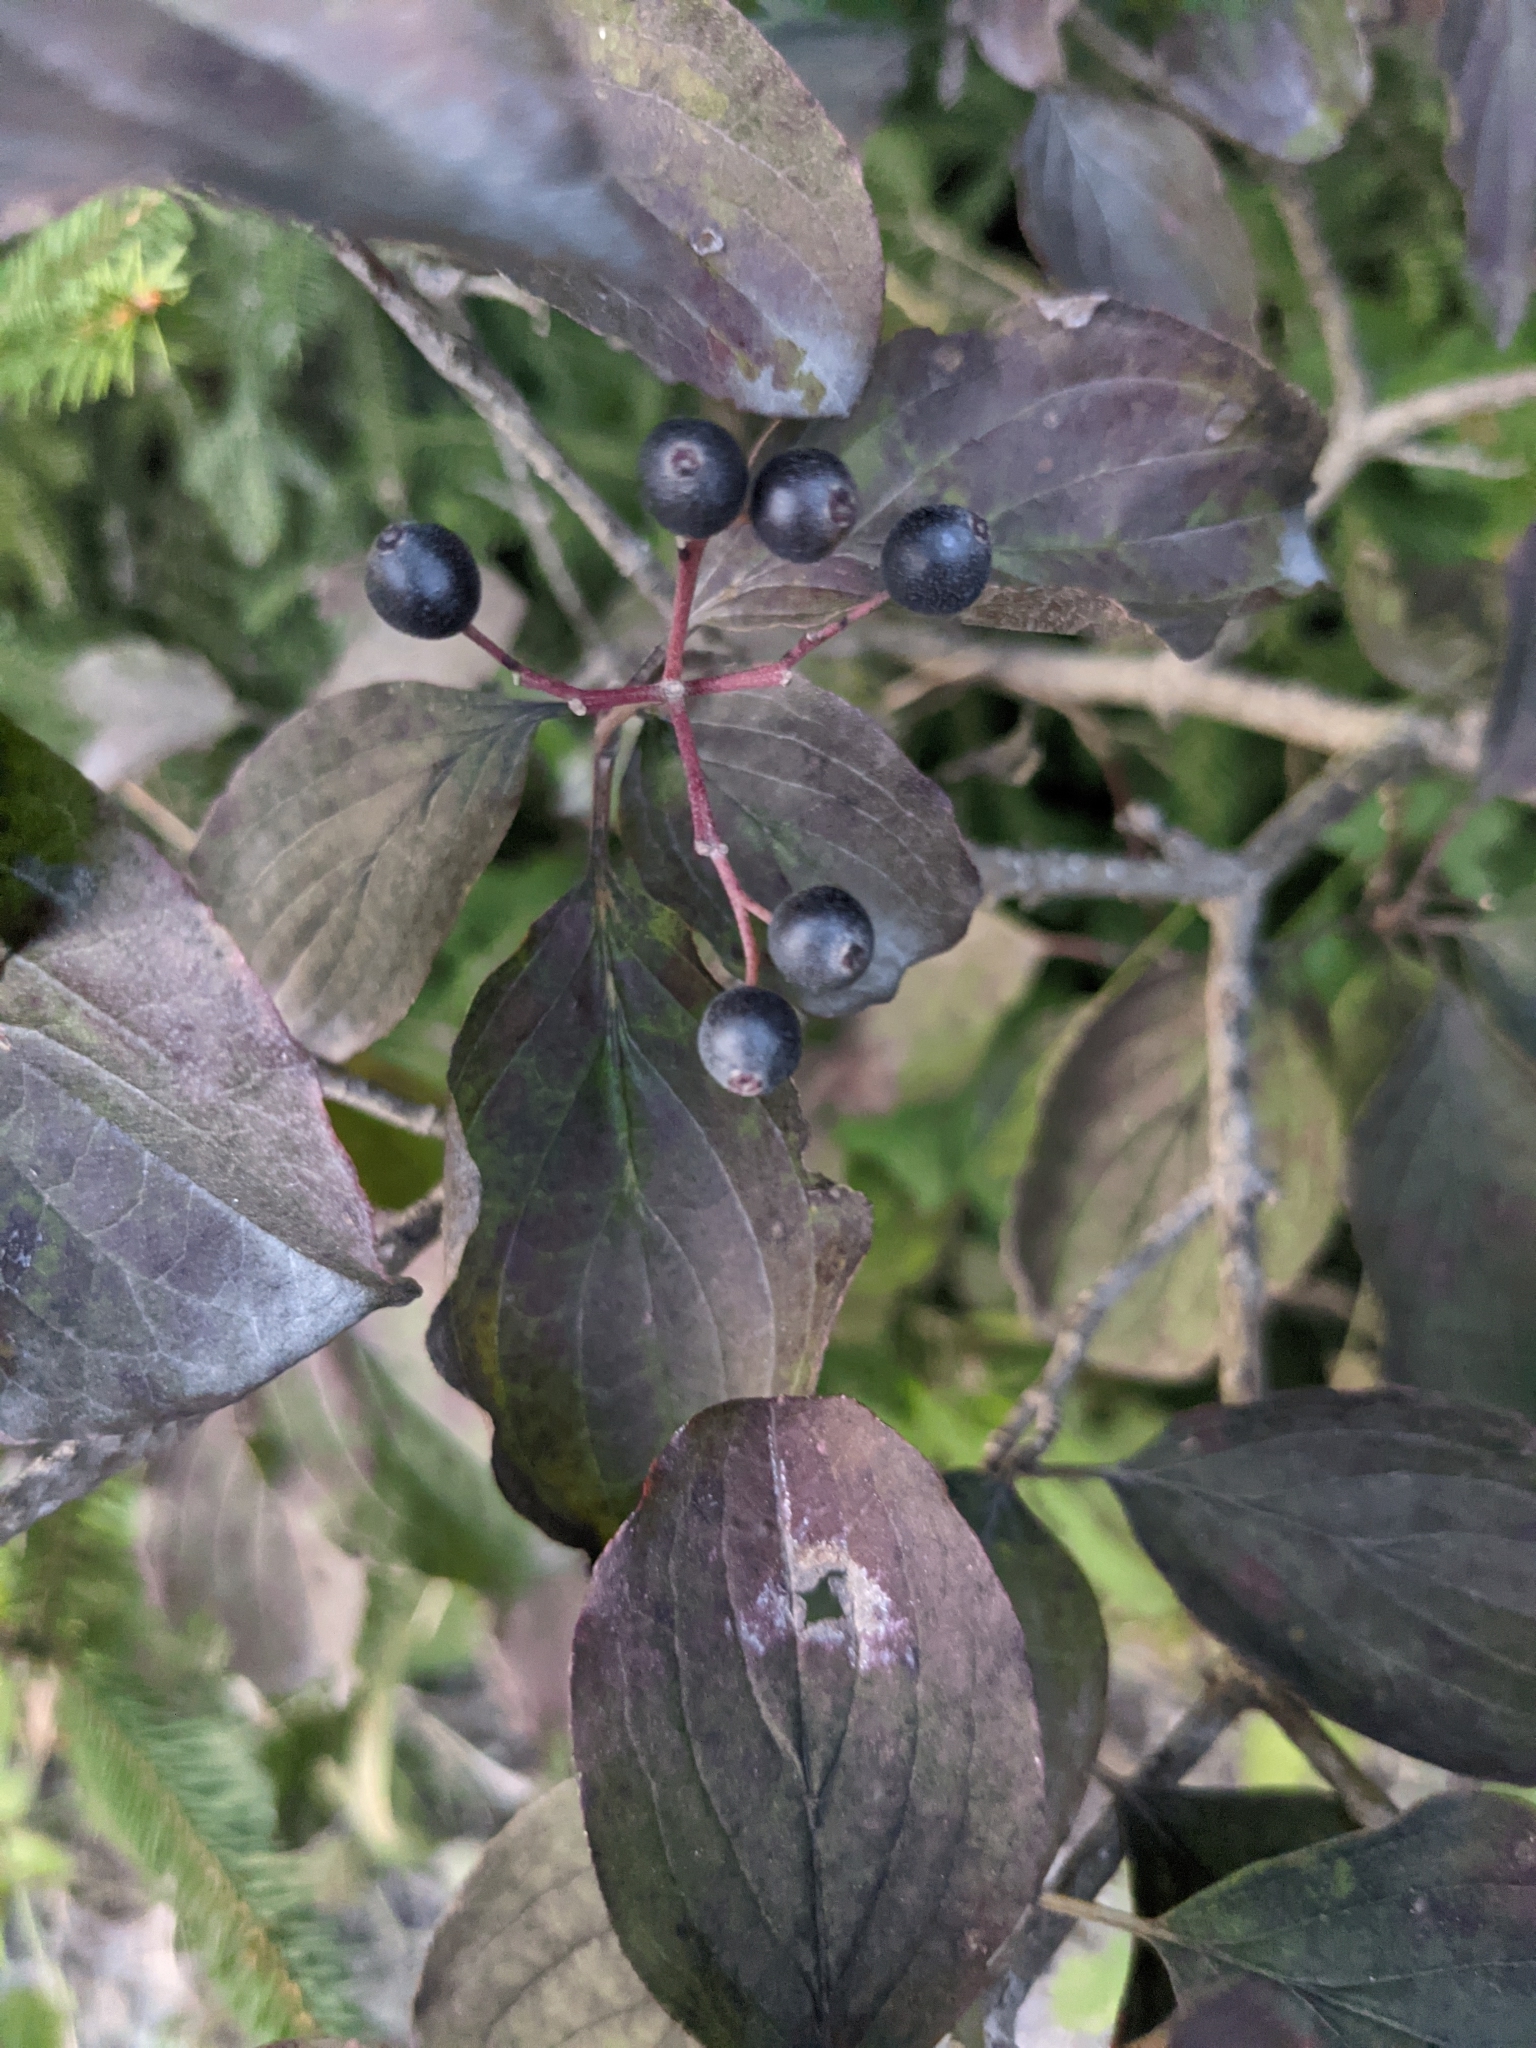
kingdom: Plantae
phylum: Tracheophyta
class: Magnoliopsida
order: Cornales
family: Cornaceae
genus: Cornus
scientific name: Cornus sanguinea
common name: Dogwood
